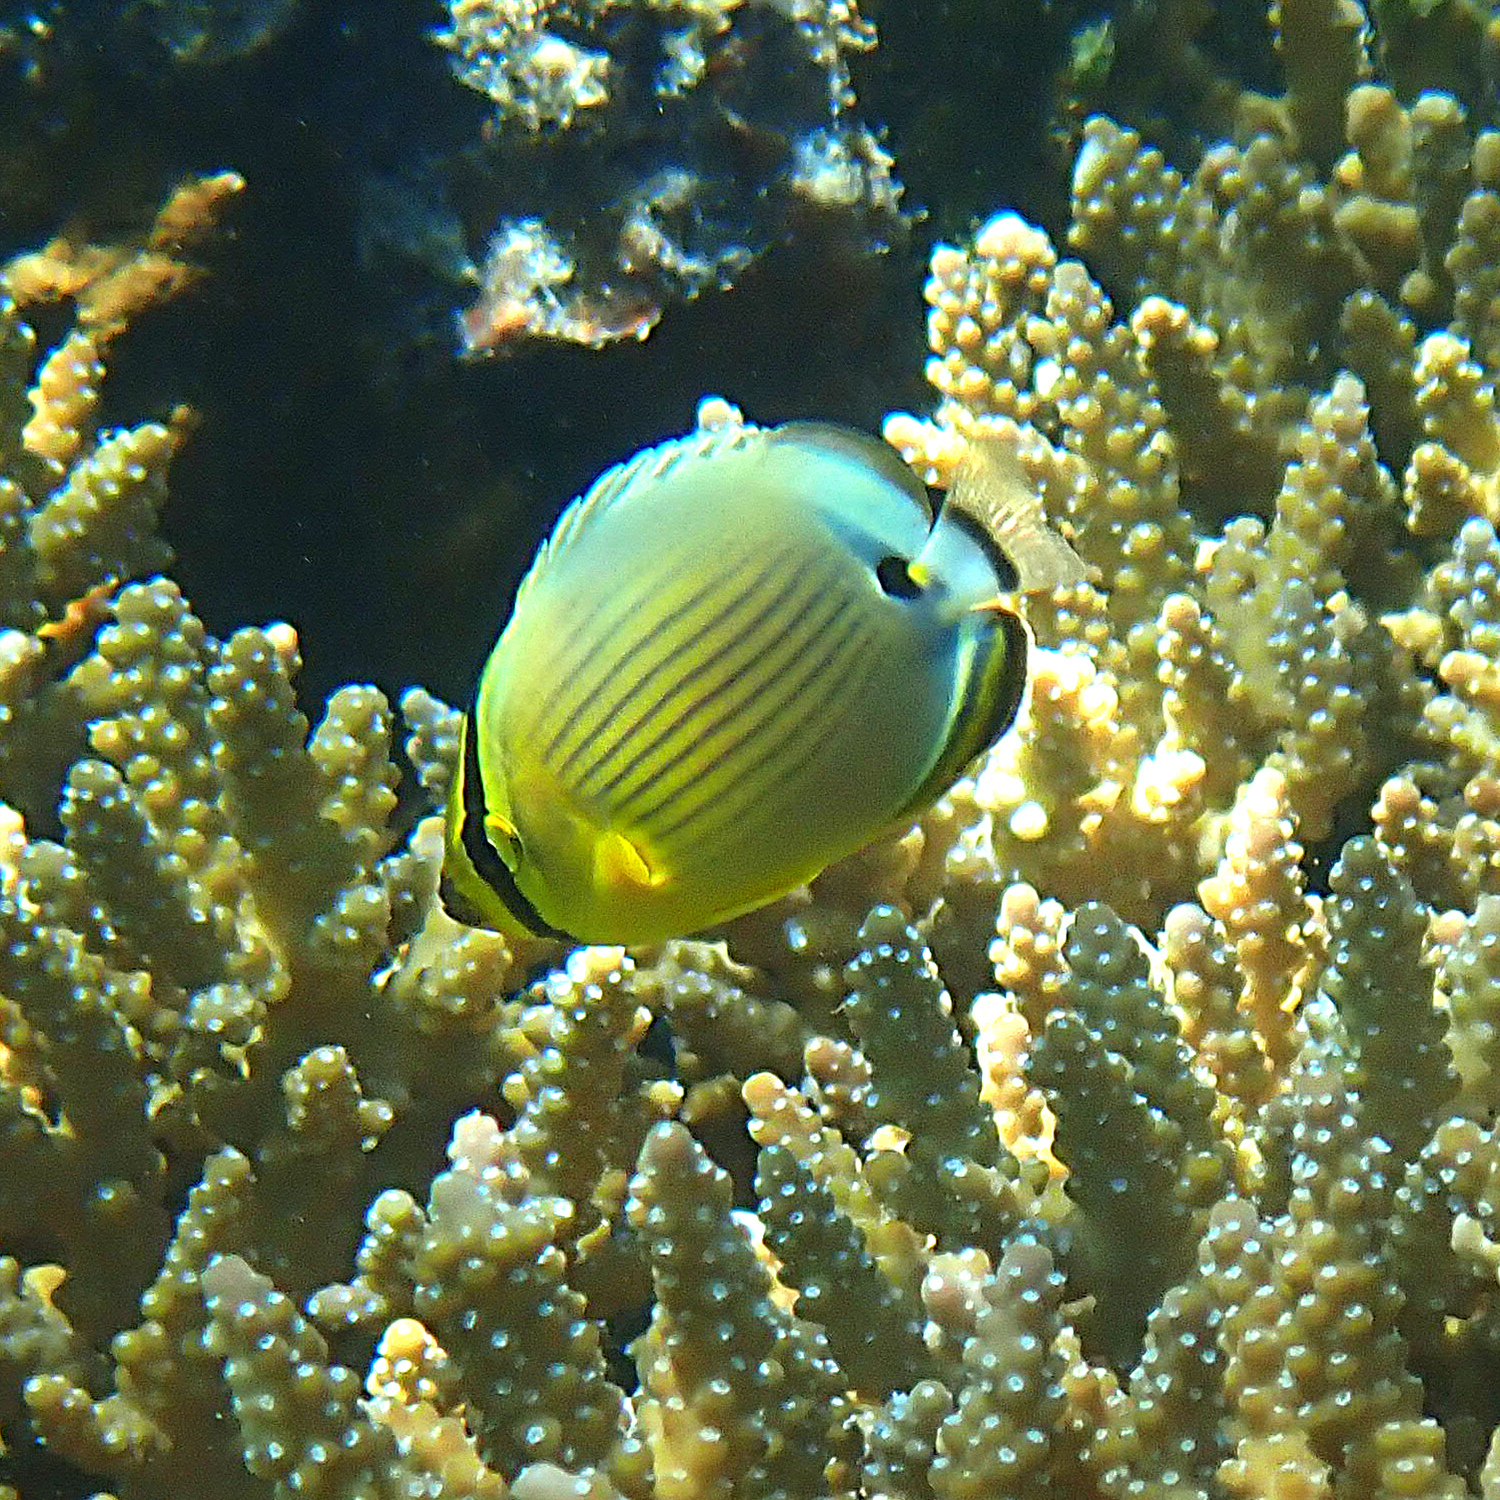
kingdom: Animalia
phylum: Chordata
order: Perciformes
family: Chaetodontidae
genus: Chaetodon
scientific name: Chaetodon lunulatus
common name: Redfin butterflyfish
